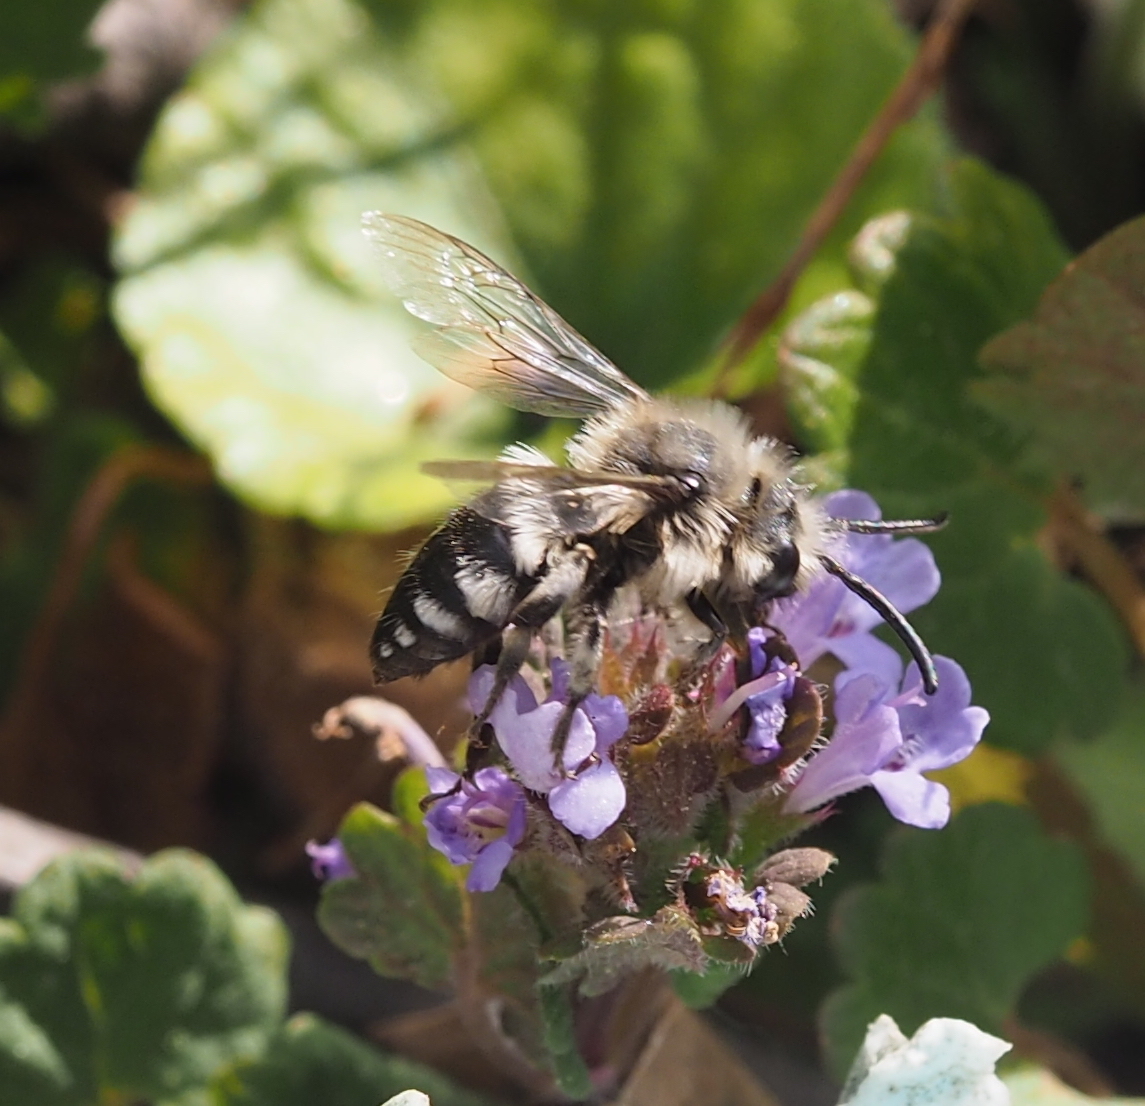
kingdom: Animalia
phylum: Arthropoda
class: Insecta
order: Hymenoptera
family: Apidae
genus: Melecta
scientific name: Melecta albifrons
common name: Common mourning bee
